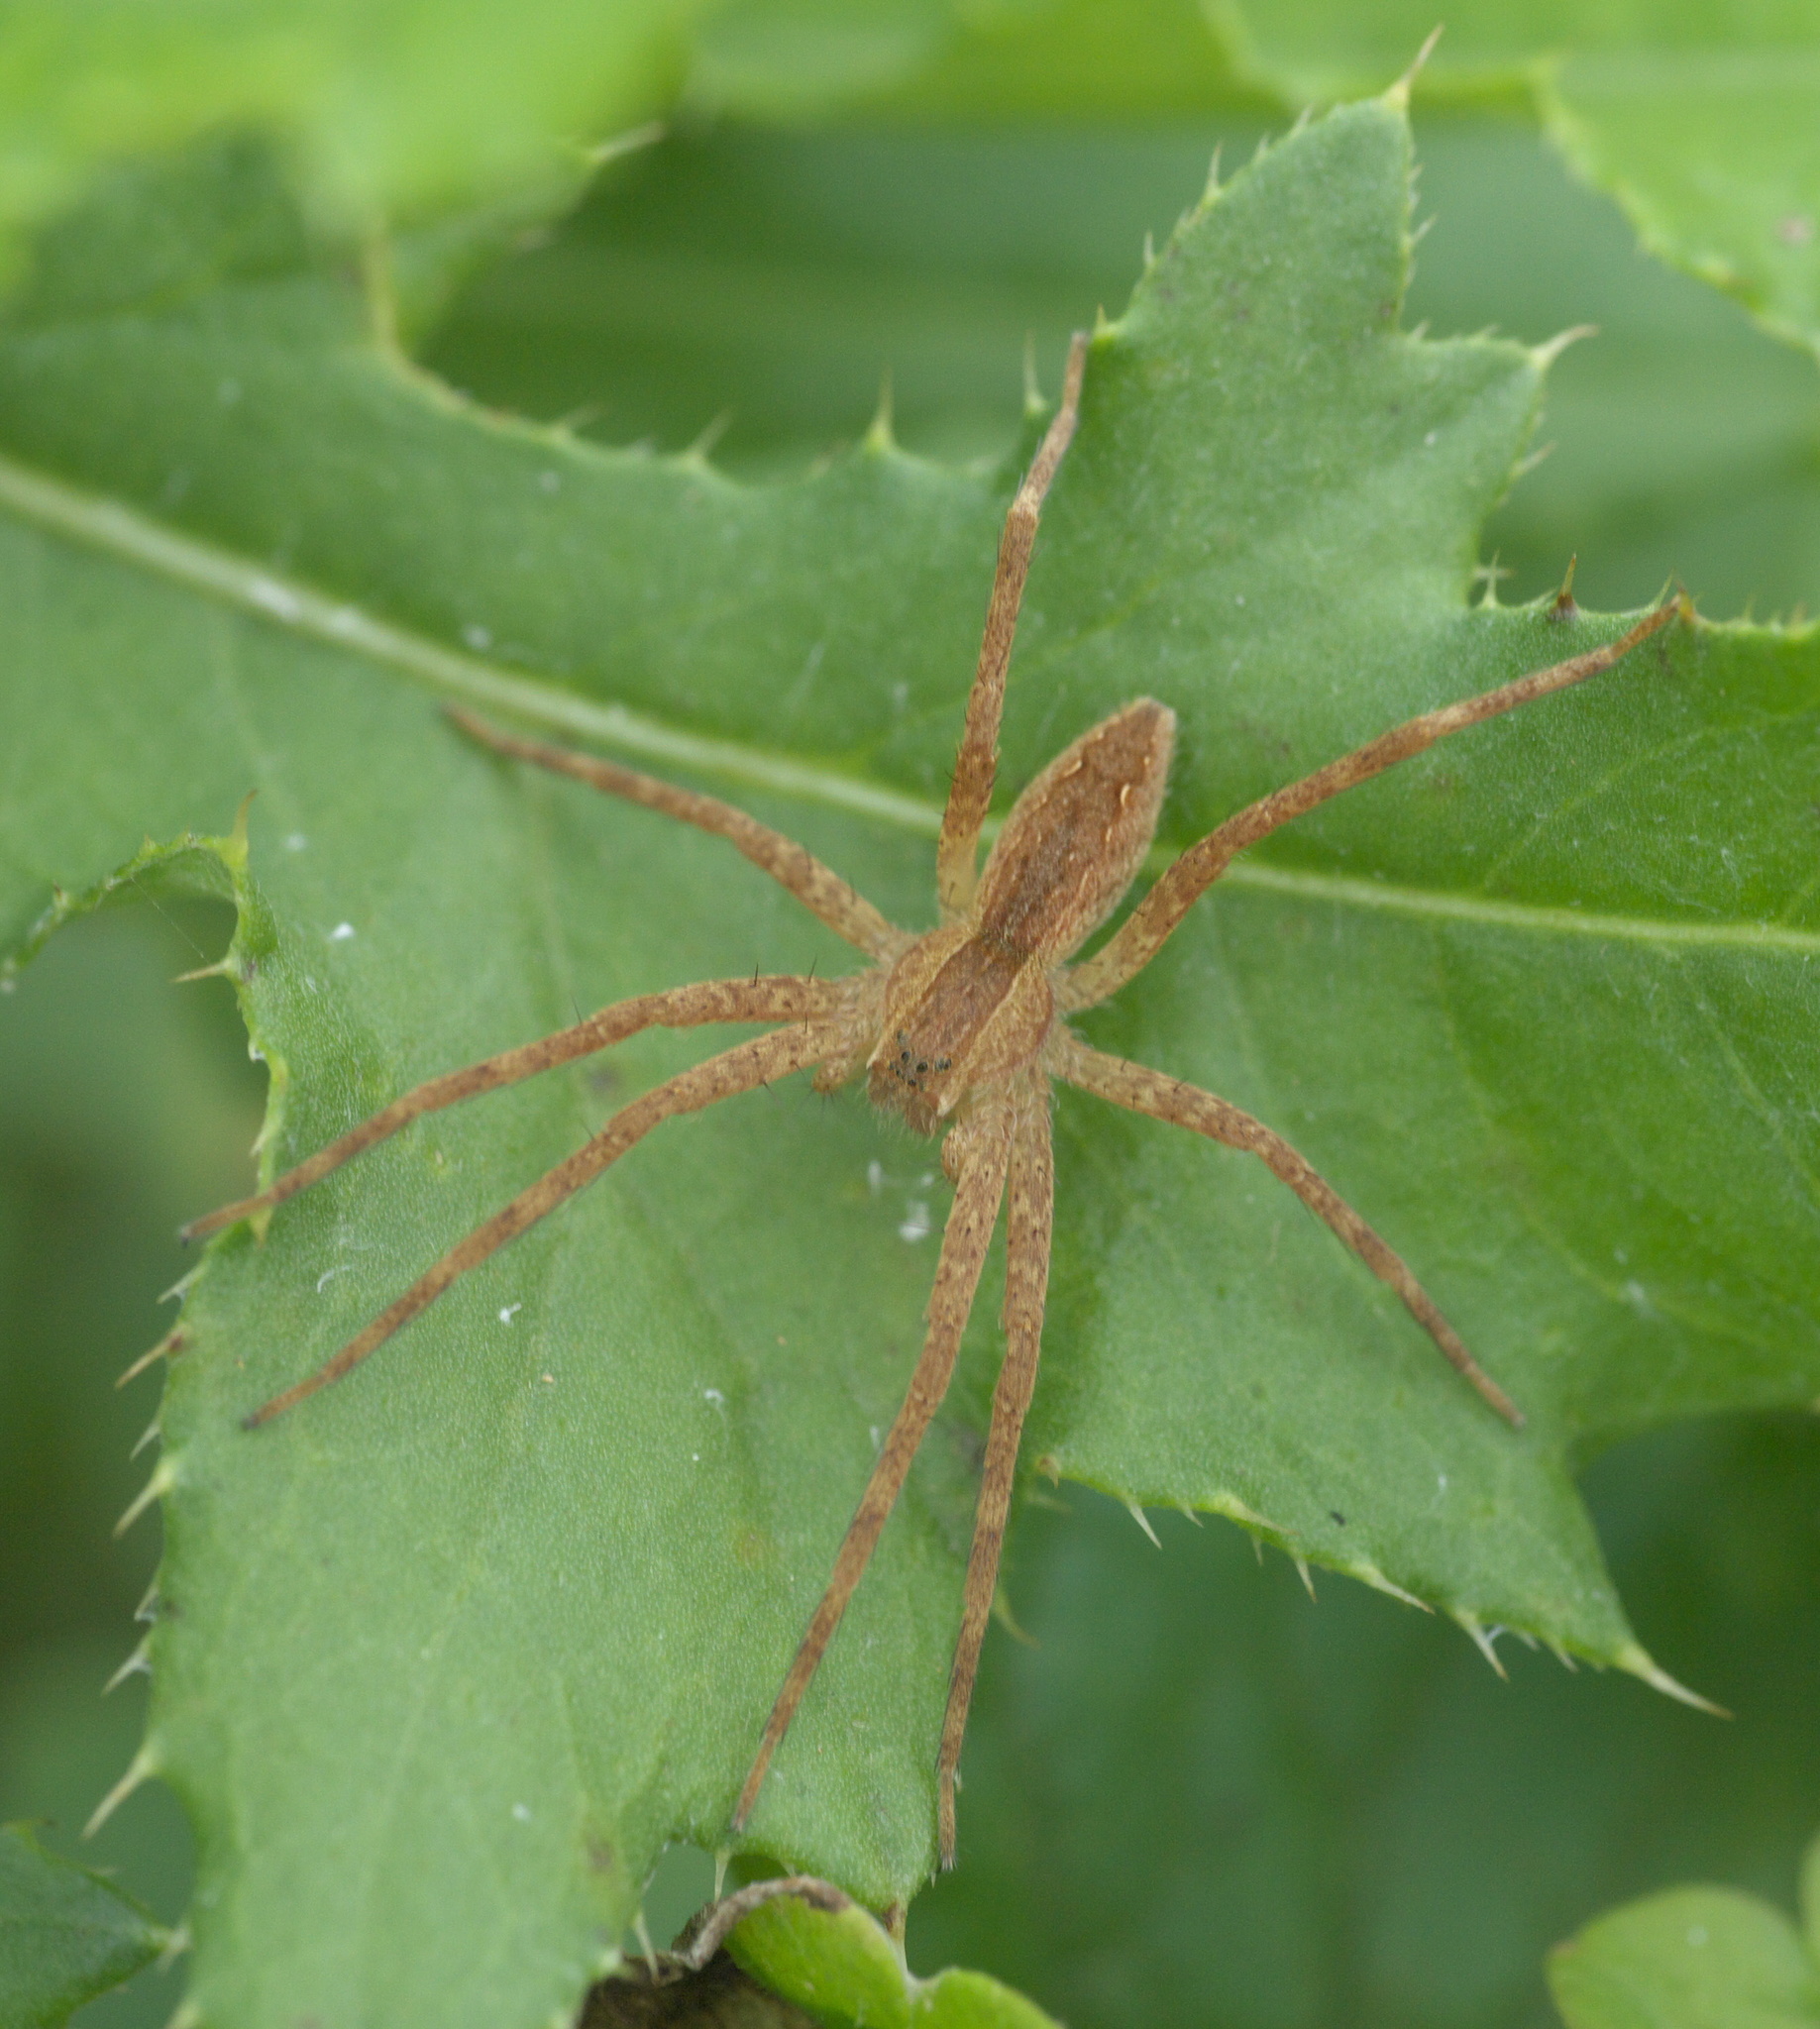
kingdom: Animalia
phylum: Arthropoda
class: Arachnida
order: Araneae
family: Pisauridae
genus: Pisaurina
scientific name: Pisaurina mira
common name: American nursery web spider
